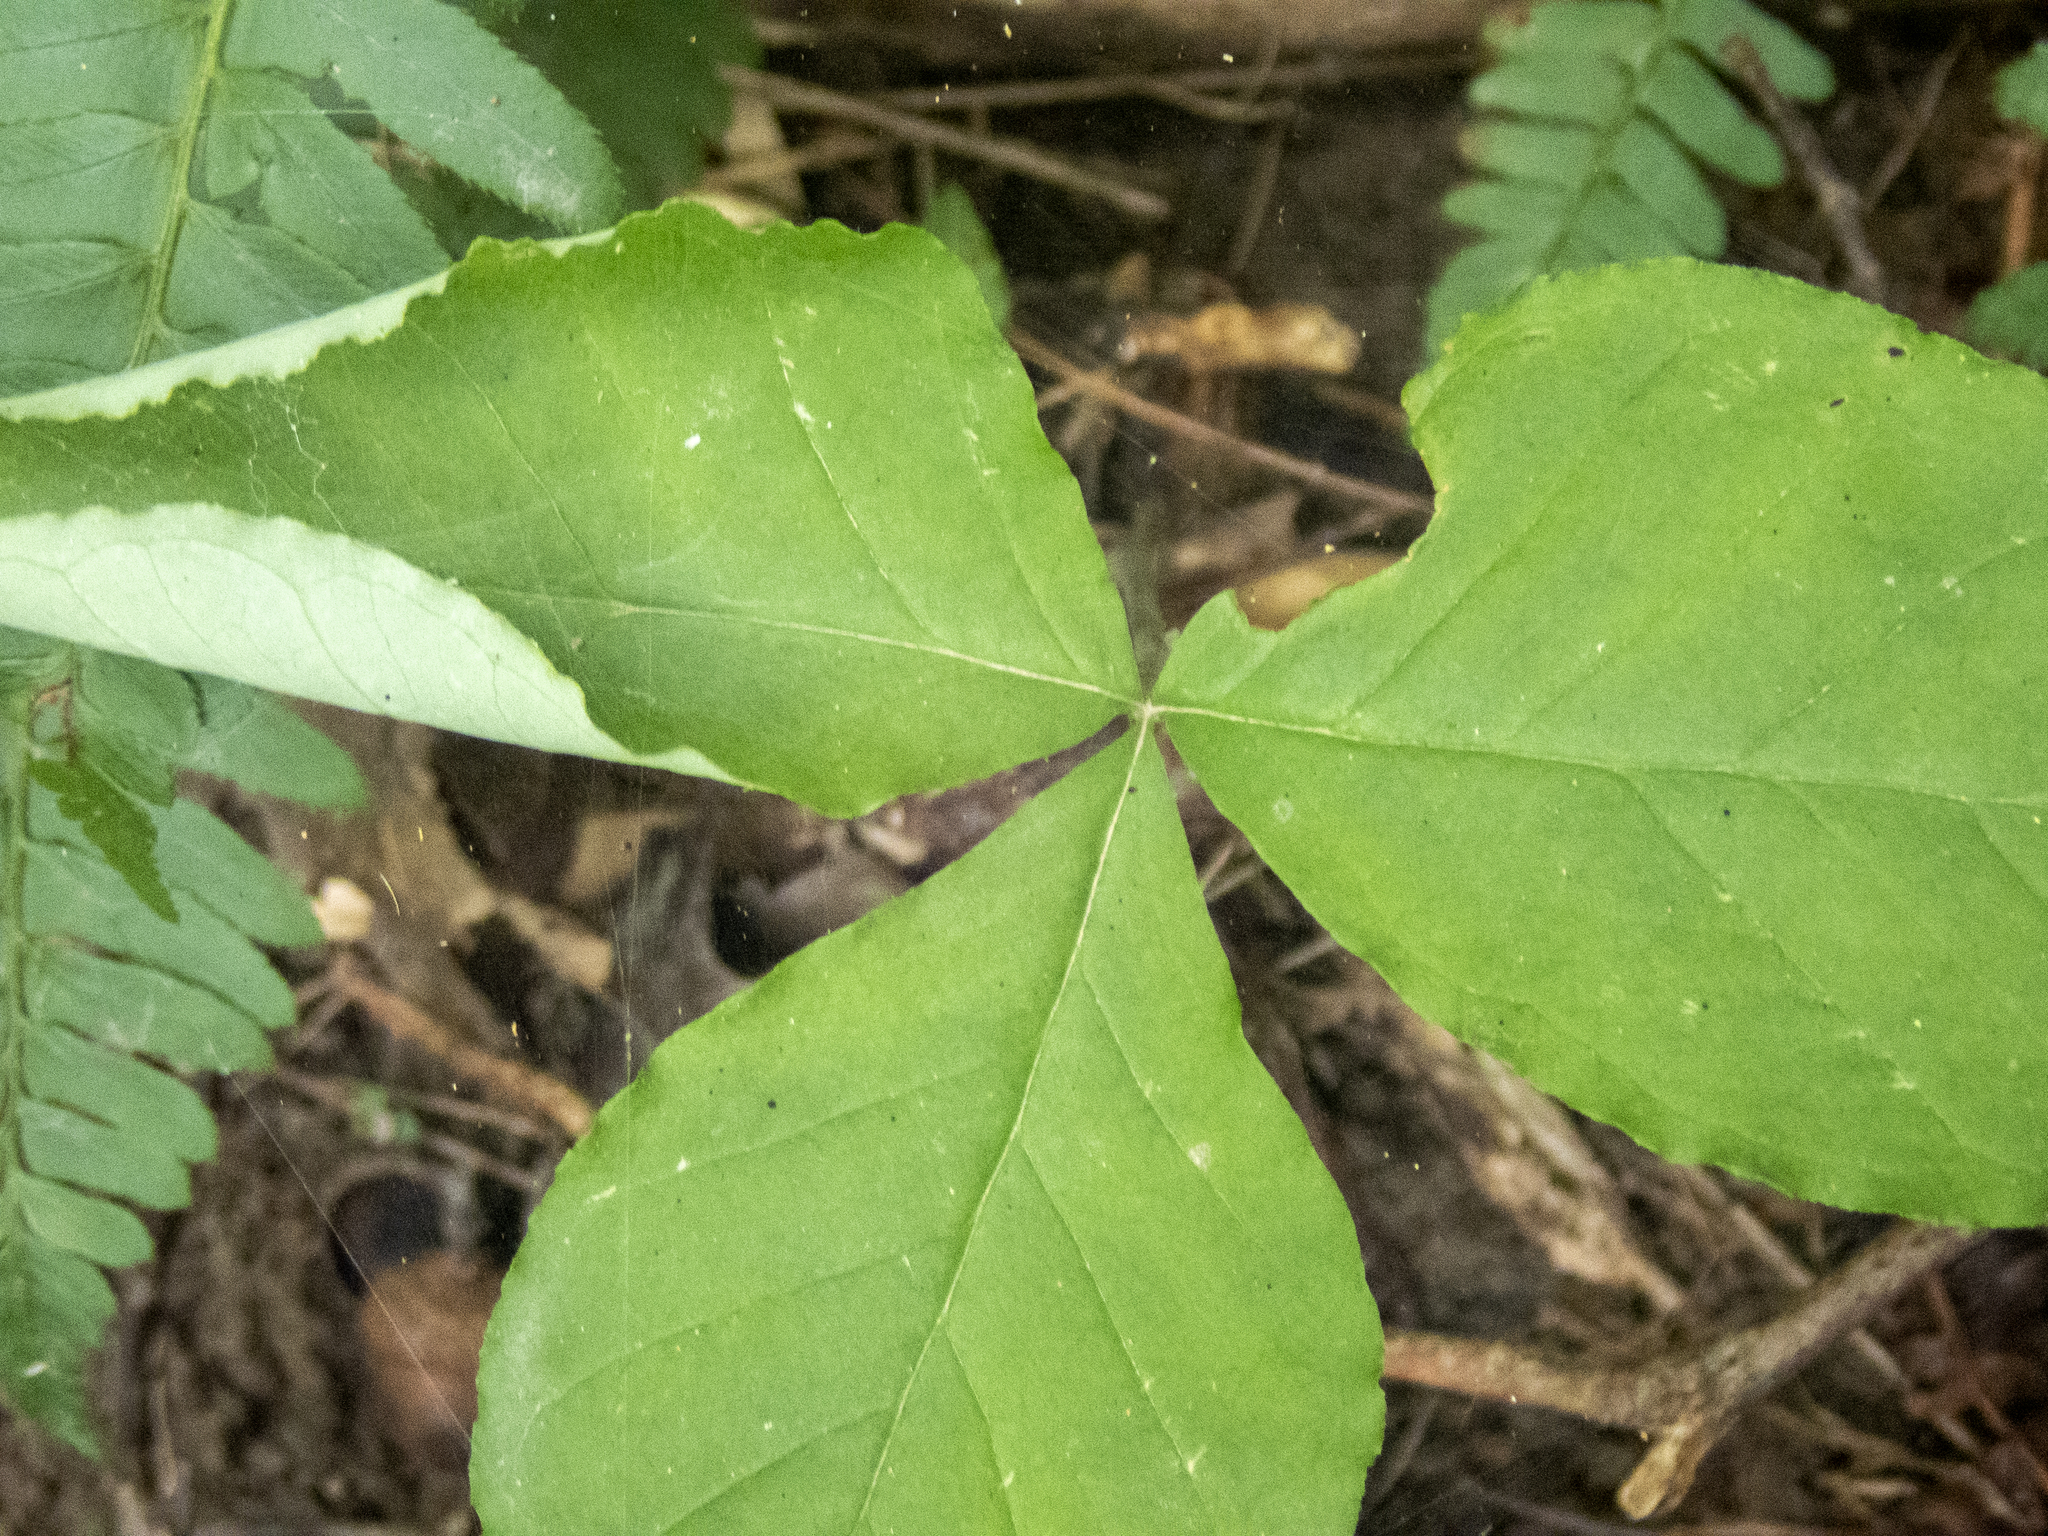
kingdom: Plantae
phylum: Tracheophyta
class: Liliopsida
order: Alismatales
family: Araceae
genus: Arisaema
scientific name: Arisaema triphyllum
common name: Jack-in-the-pulpit
